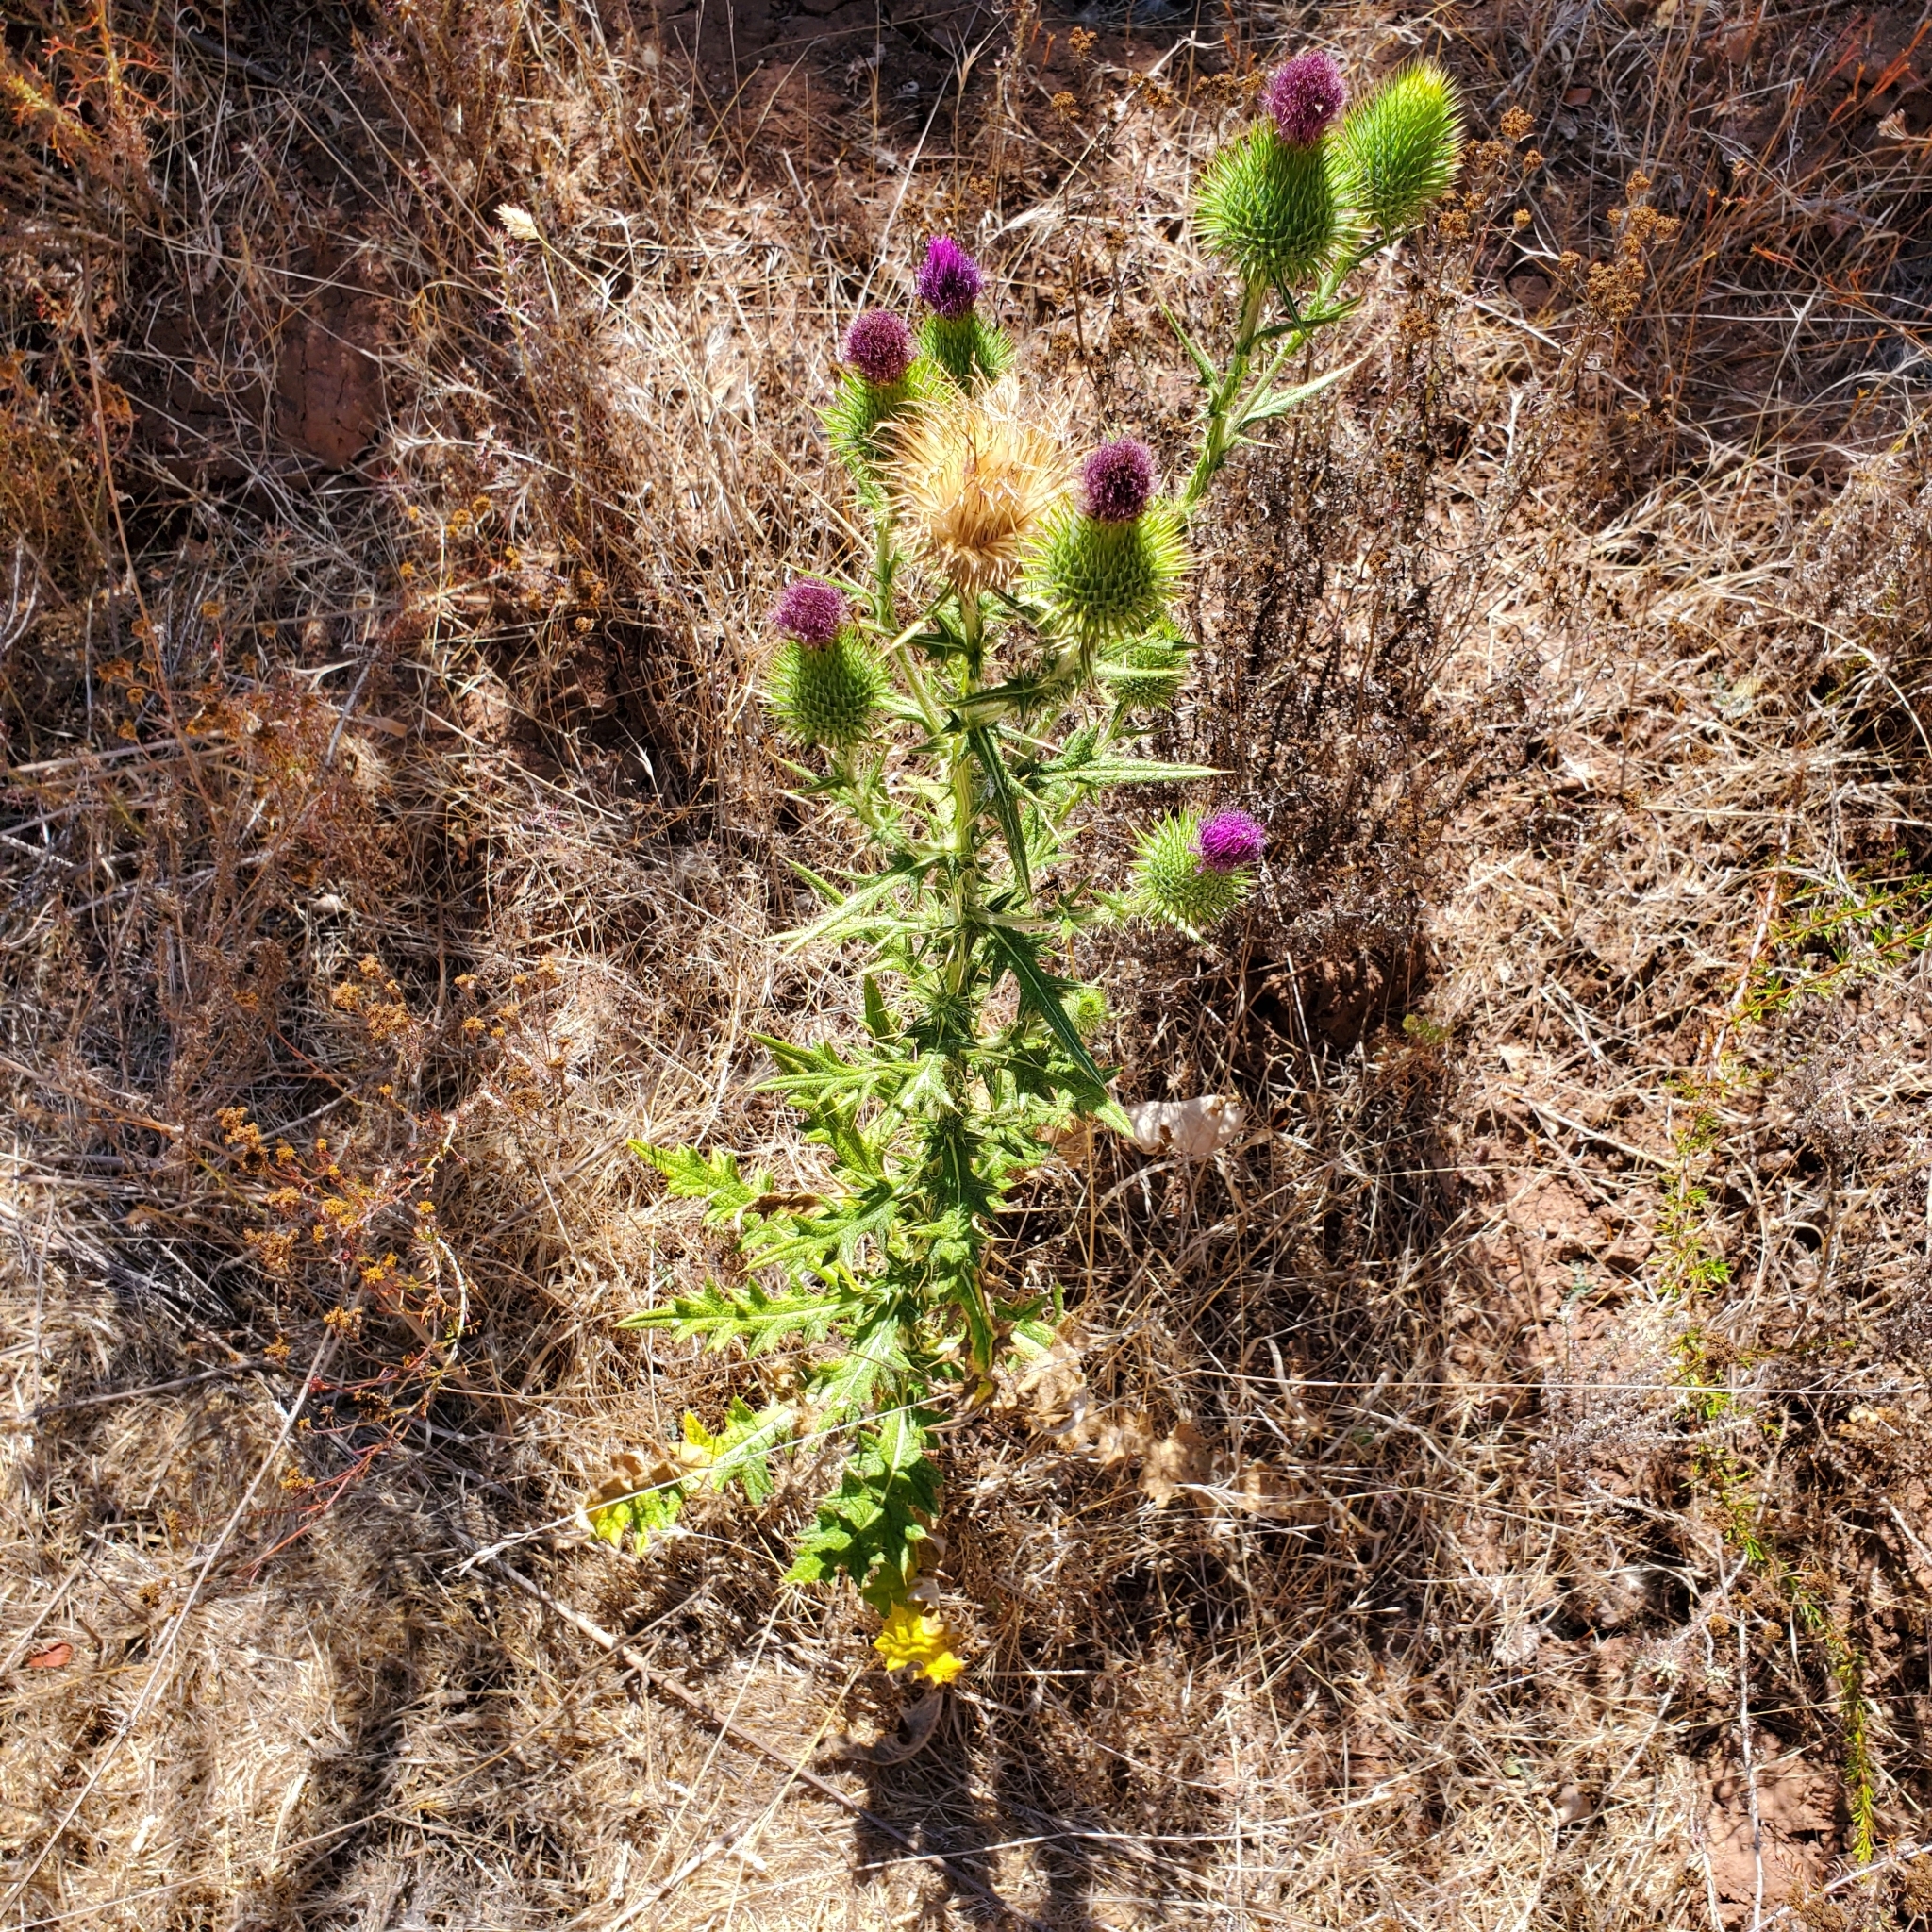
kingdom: Plantae
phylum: Tracheophyta
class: Magnoliopsida
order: Asterales
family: Asteraceae
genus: Cirsium
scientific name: Cirsium vulgare
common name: Bull thistle
